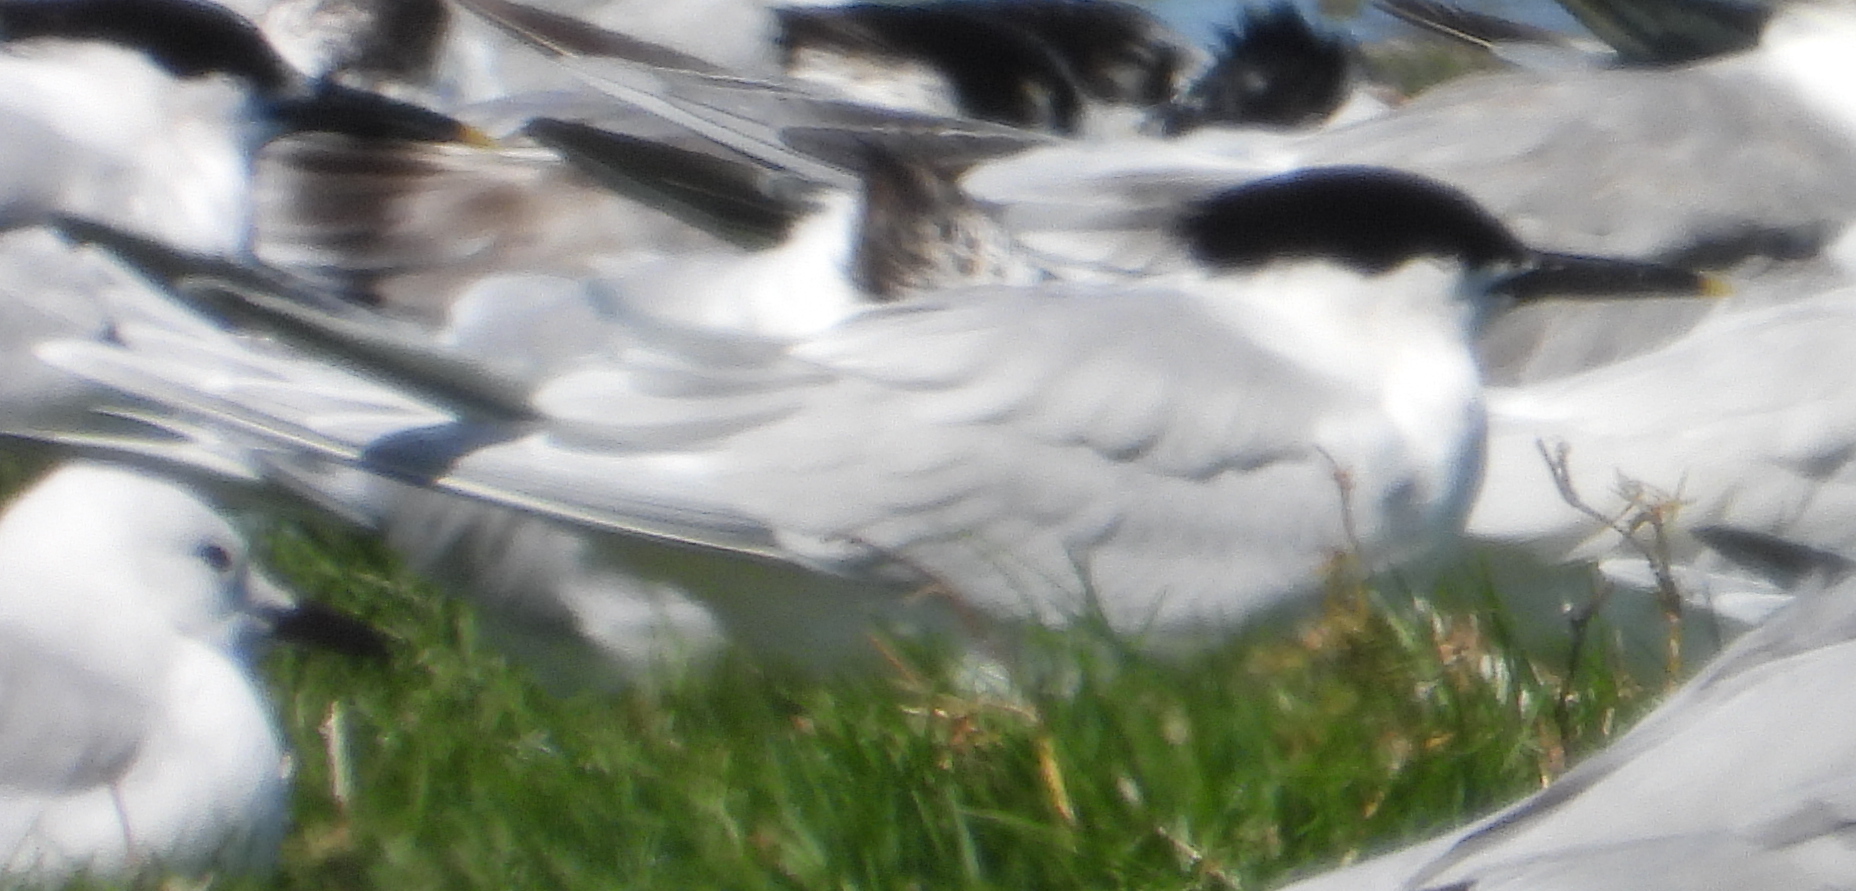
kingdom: Animalia
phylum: Chordata
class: Aves
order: Charadriiformes
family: Laridae
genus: Thalasseus
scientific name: Thalasseus sandvicensis
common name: Sandwich tern
